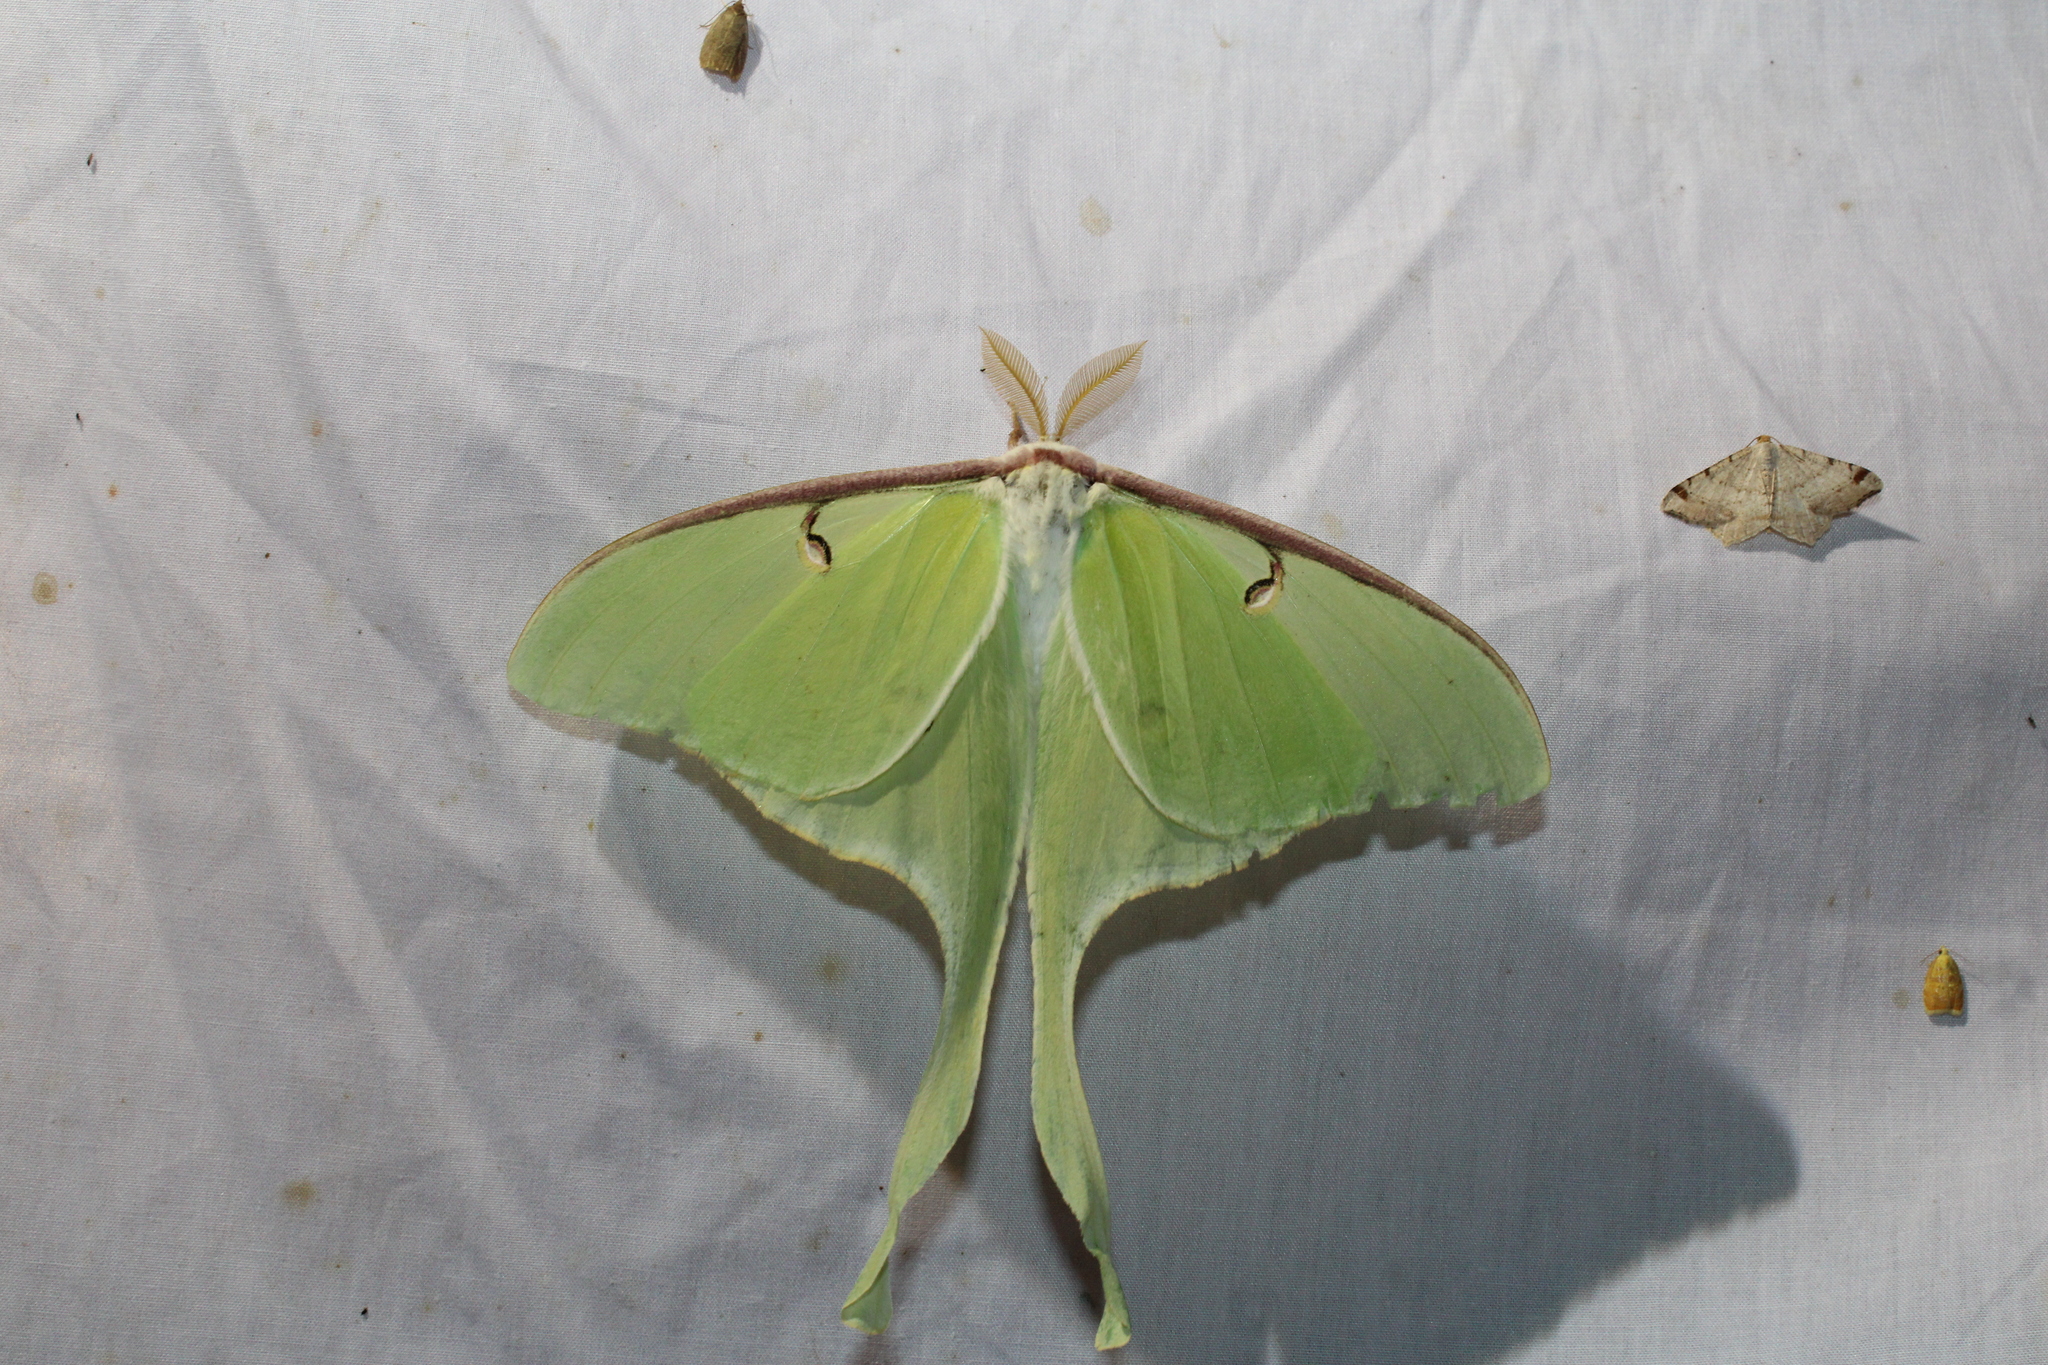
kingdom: Animalia
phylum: Arthropoda
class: Insecta
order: Lepidoptera
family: Saturniidae
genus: Actias
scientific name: Actias luna
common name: Luna moth
